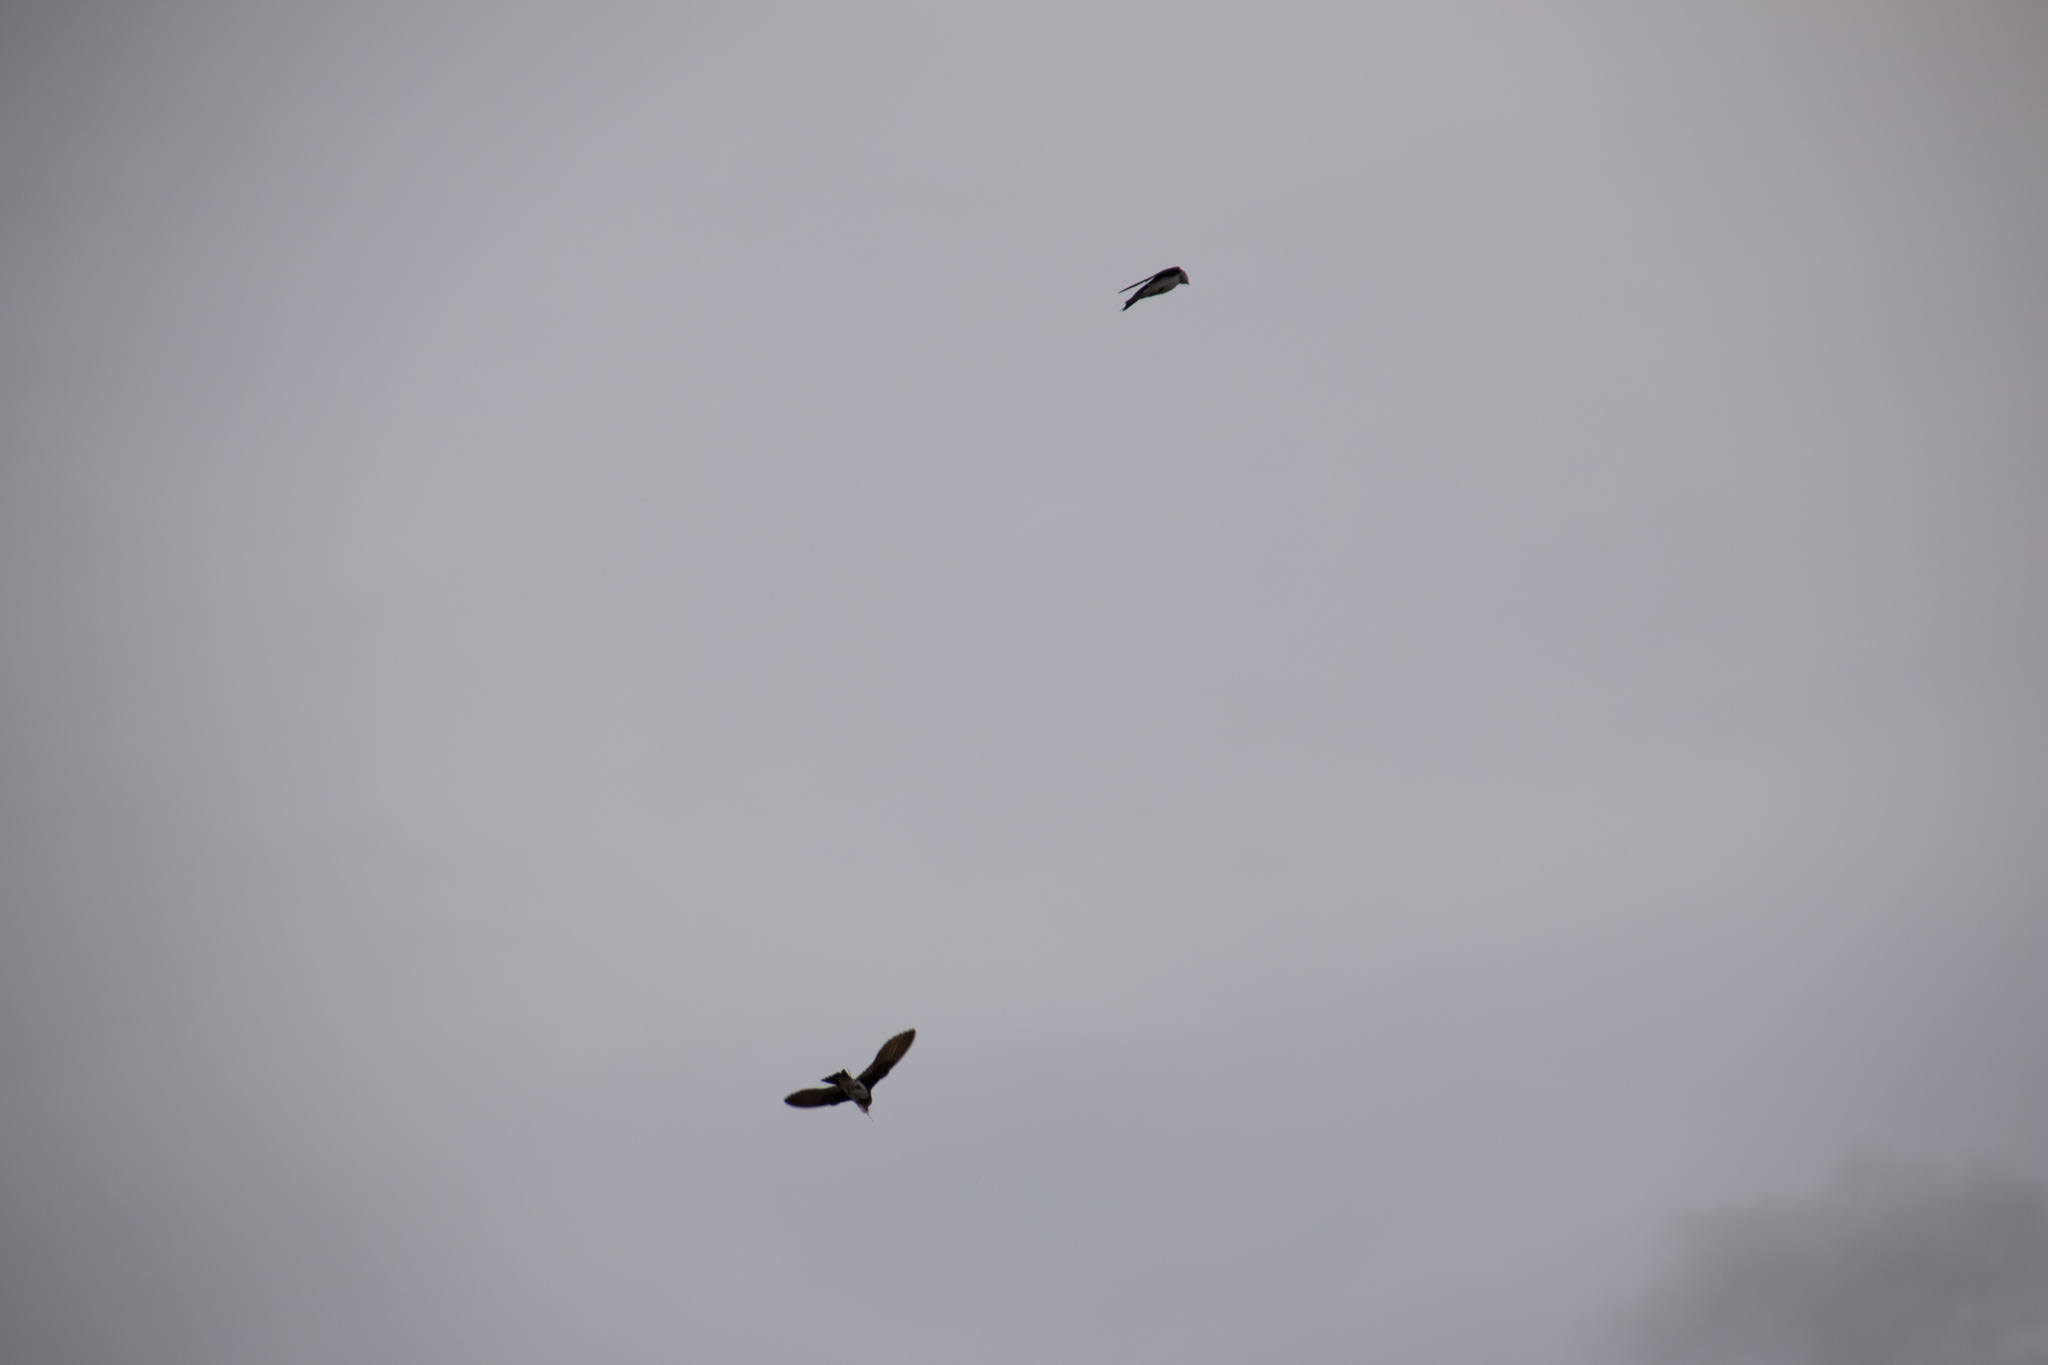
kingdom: Animalia
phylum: Chordata
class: Aves
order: Passeriformes
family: Hirundinidae
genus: Tachycineta
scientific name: Tachycineta bicolor
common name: Tree swallow
